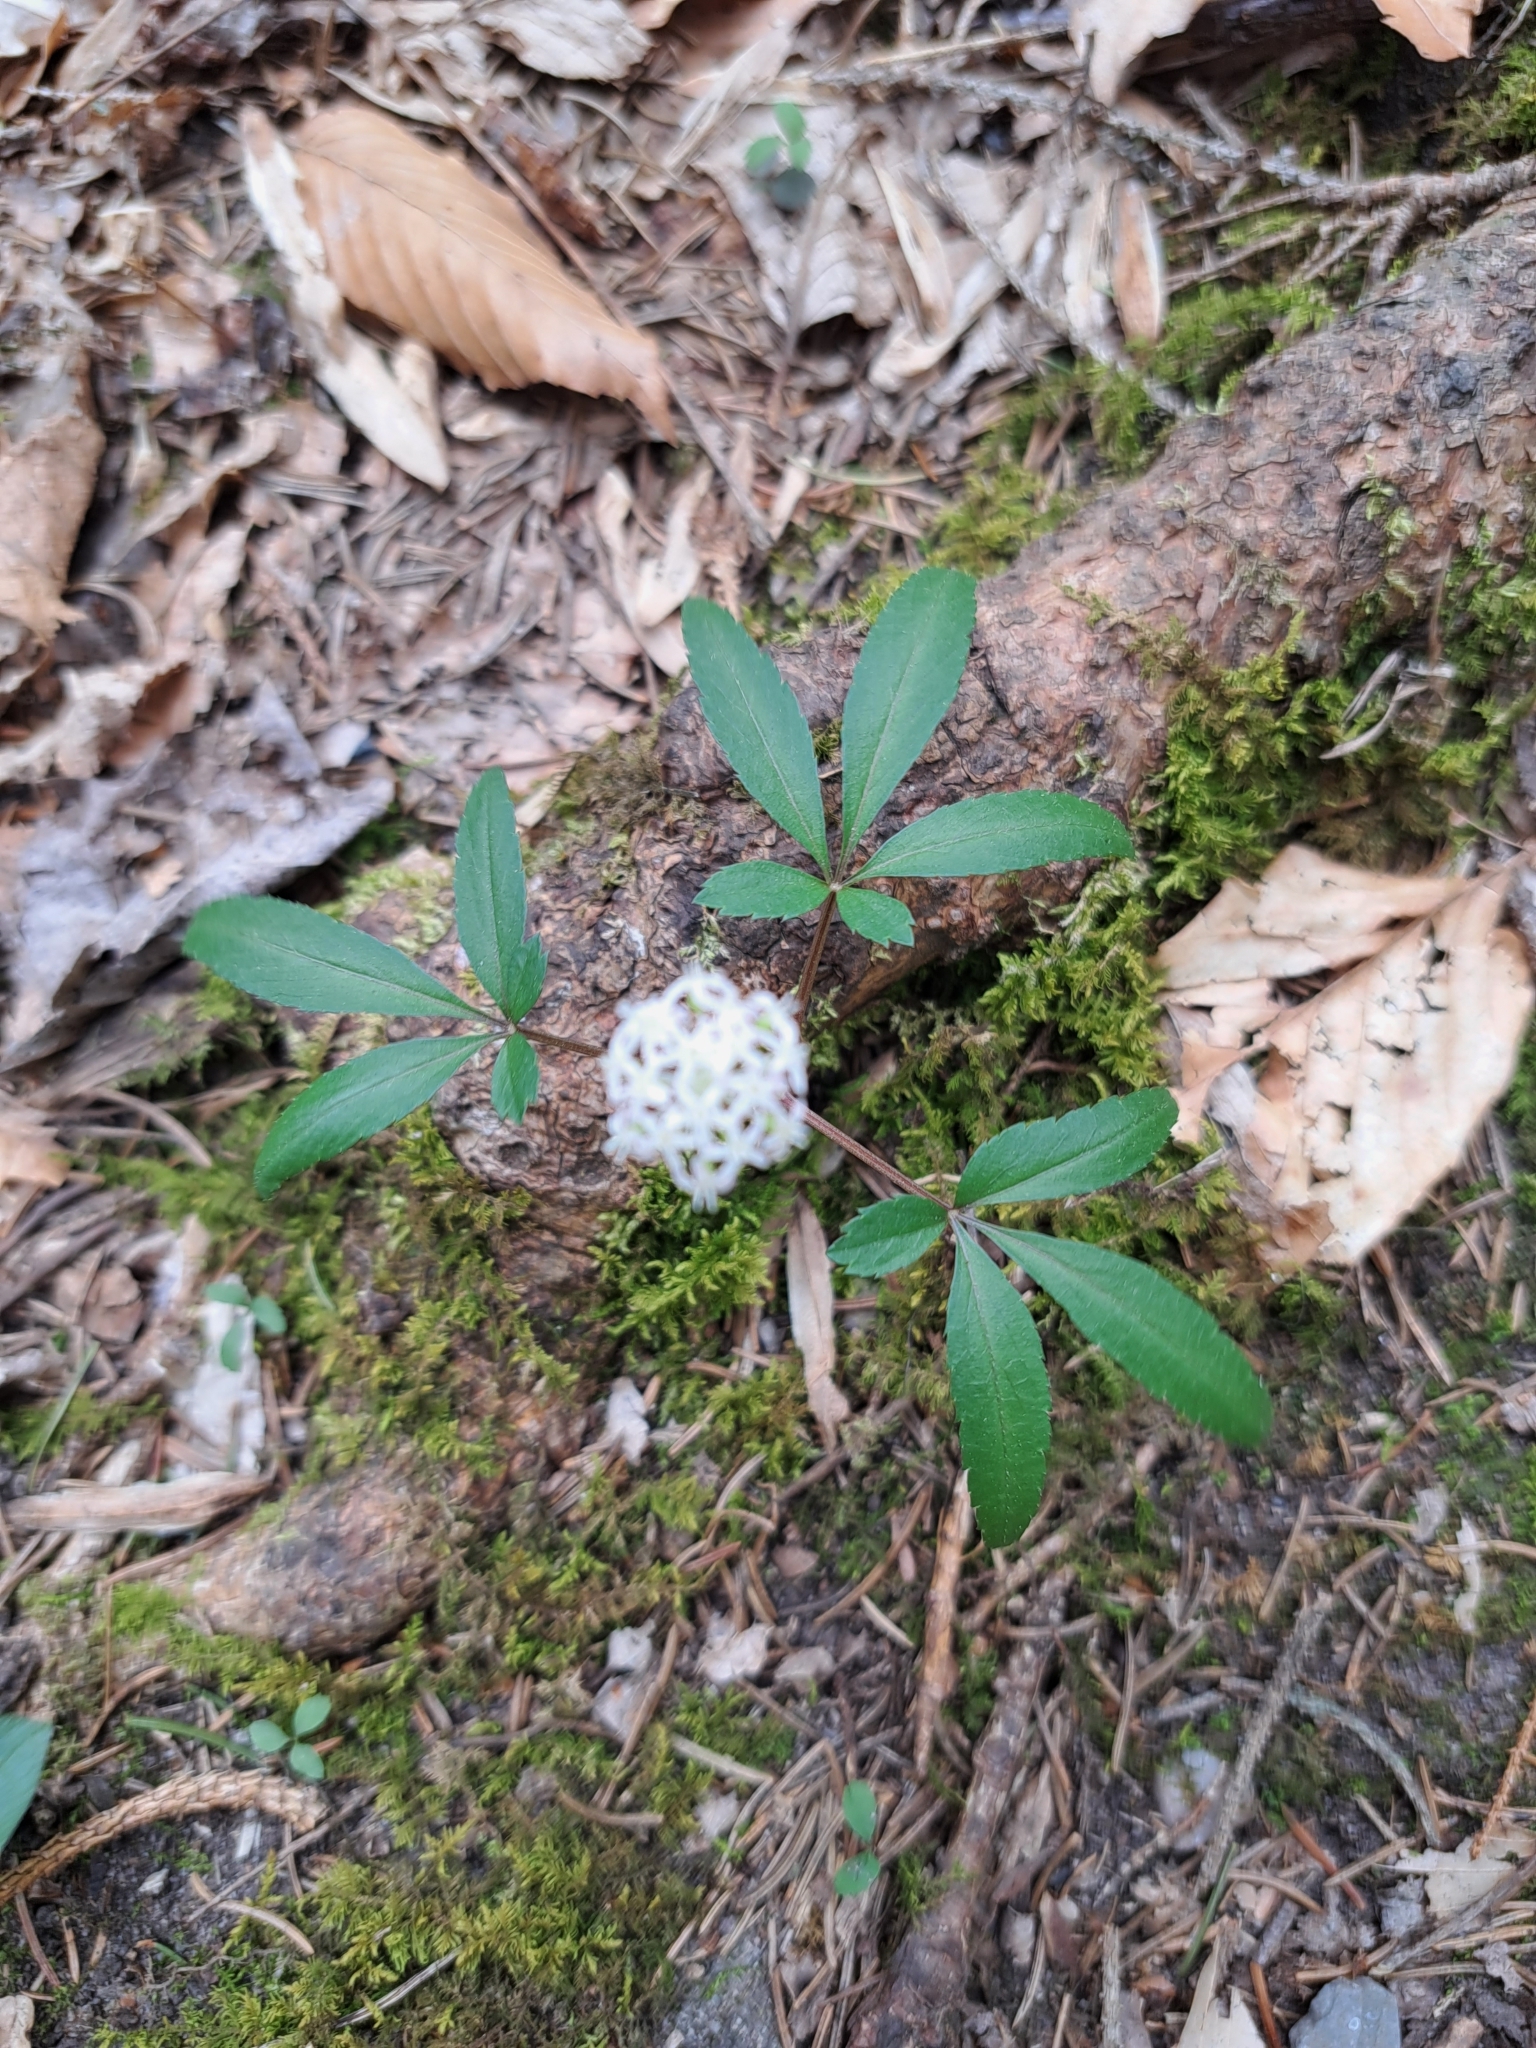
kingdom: Plantae
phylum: Tracheophyta
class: Magnoliopsida
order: Apiales
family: Araliaceae
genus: Panax
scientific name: Panax trifolius
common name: Dwarf ginseng
